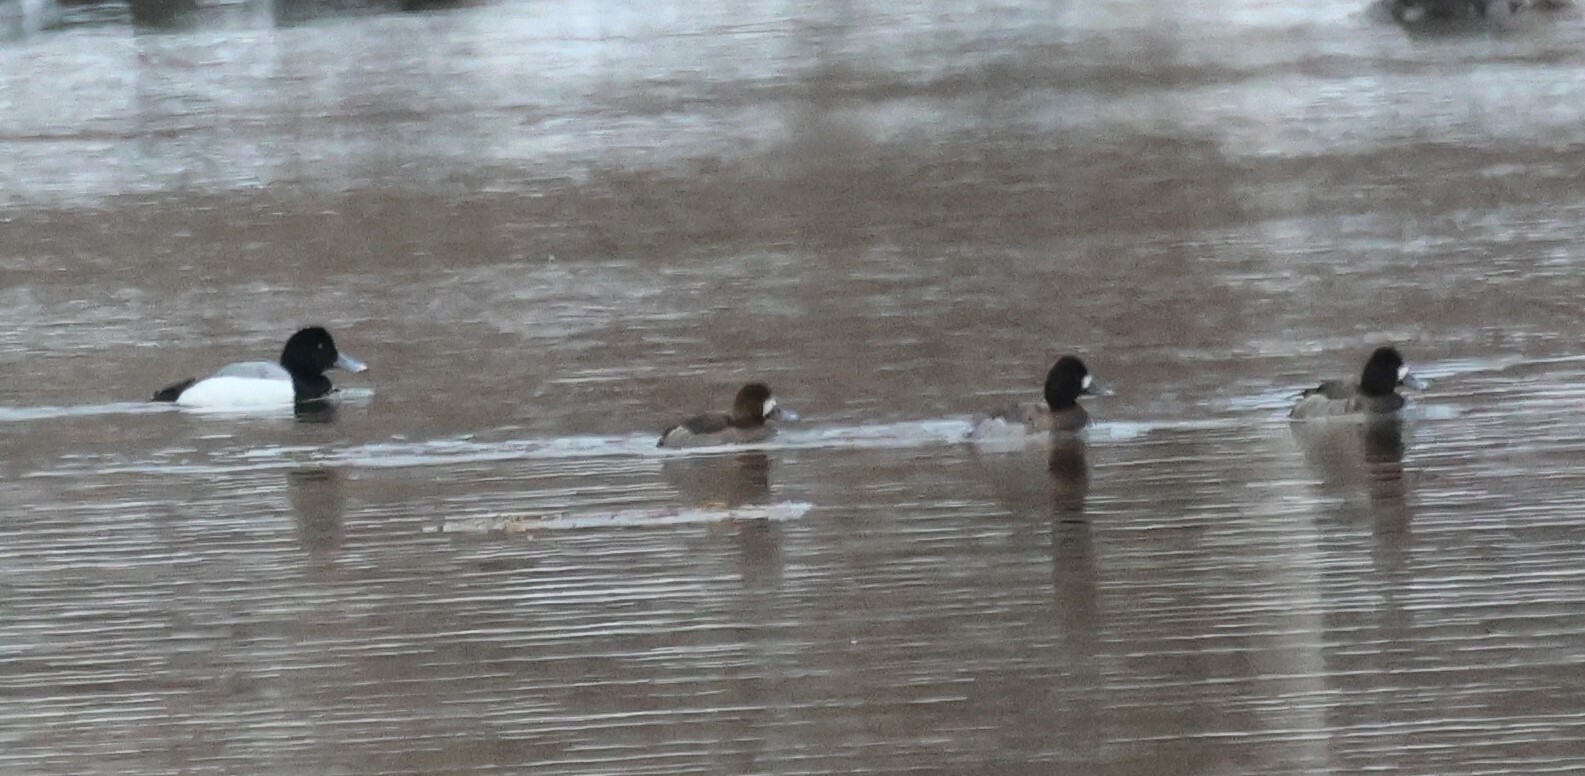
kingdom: Animalia
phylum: Chordata
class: Aves
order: Anseriformes
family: Anatidae
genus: Aythya
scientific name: Aythya marila
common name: Greater scaup
